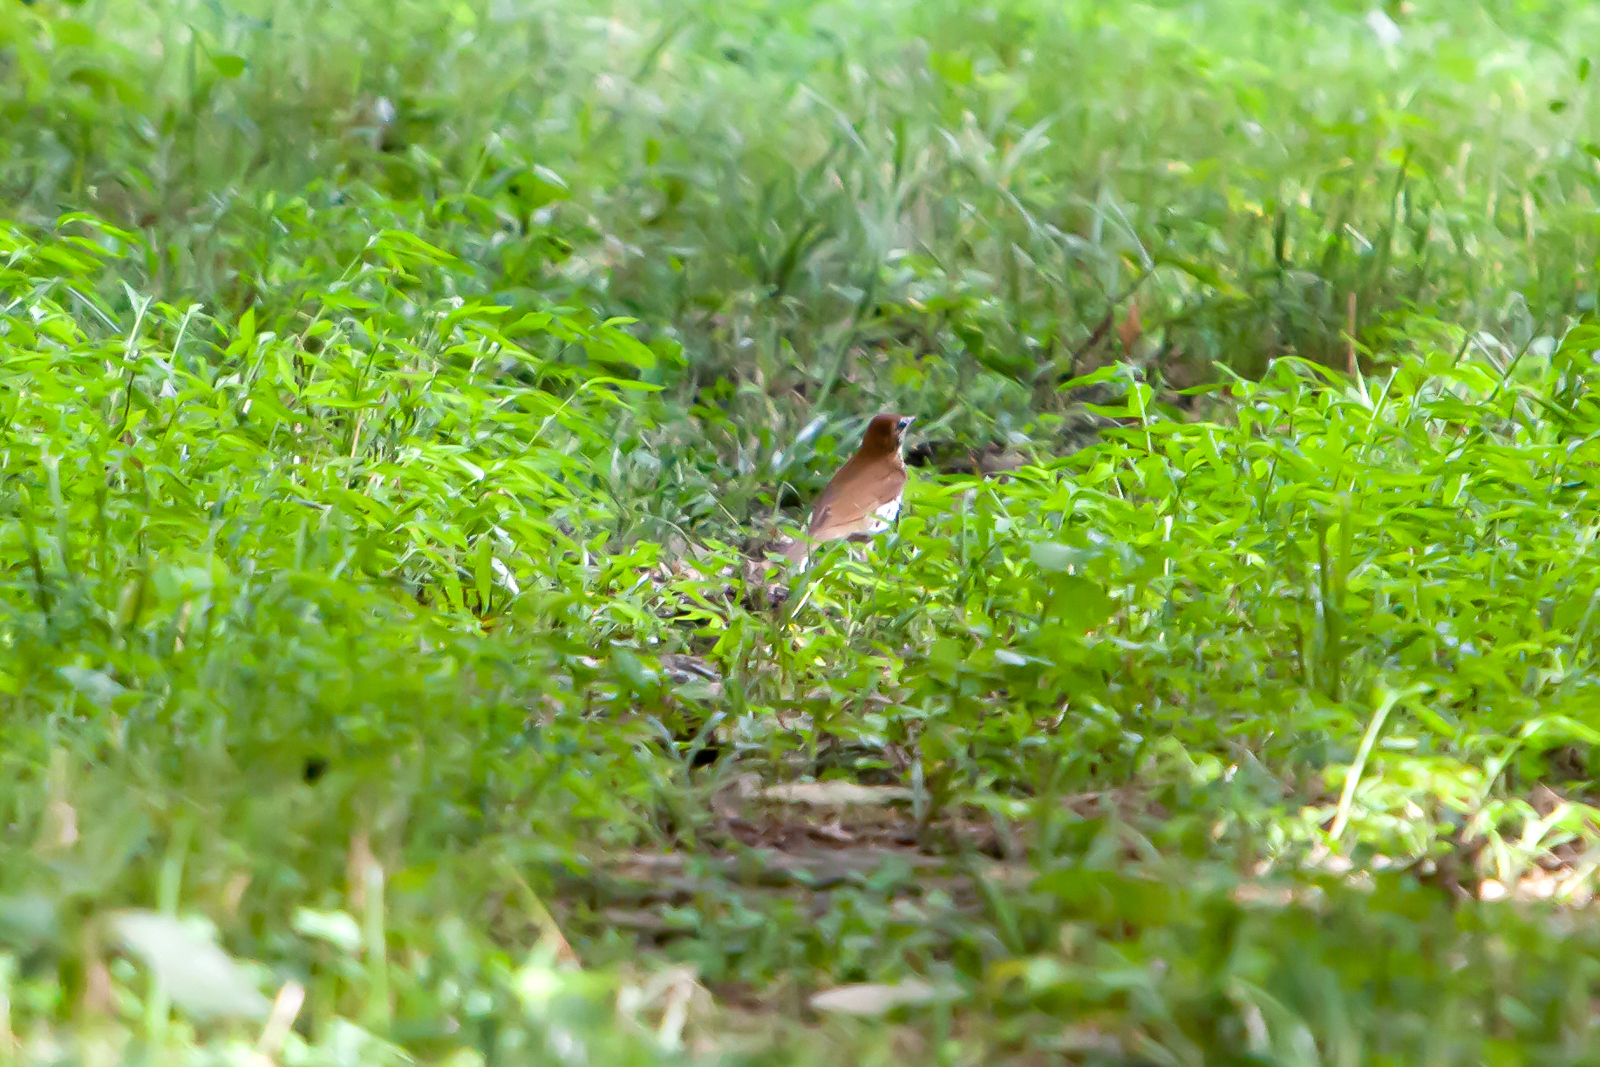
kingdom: Animalia
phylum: Chordata
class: Aves
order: Passeriformes
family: Turdidae
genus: Hylocichla
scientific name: Hylocichla mustelina
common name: Wood thrush
